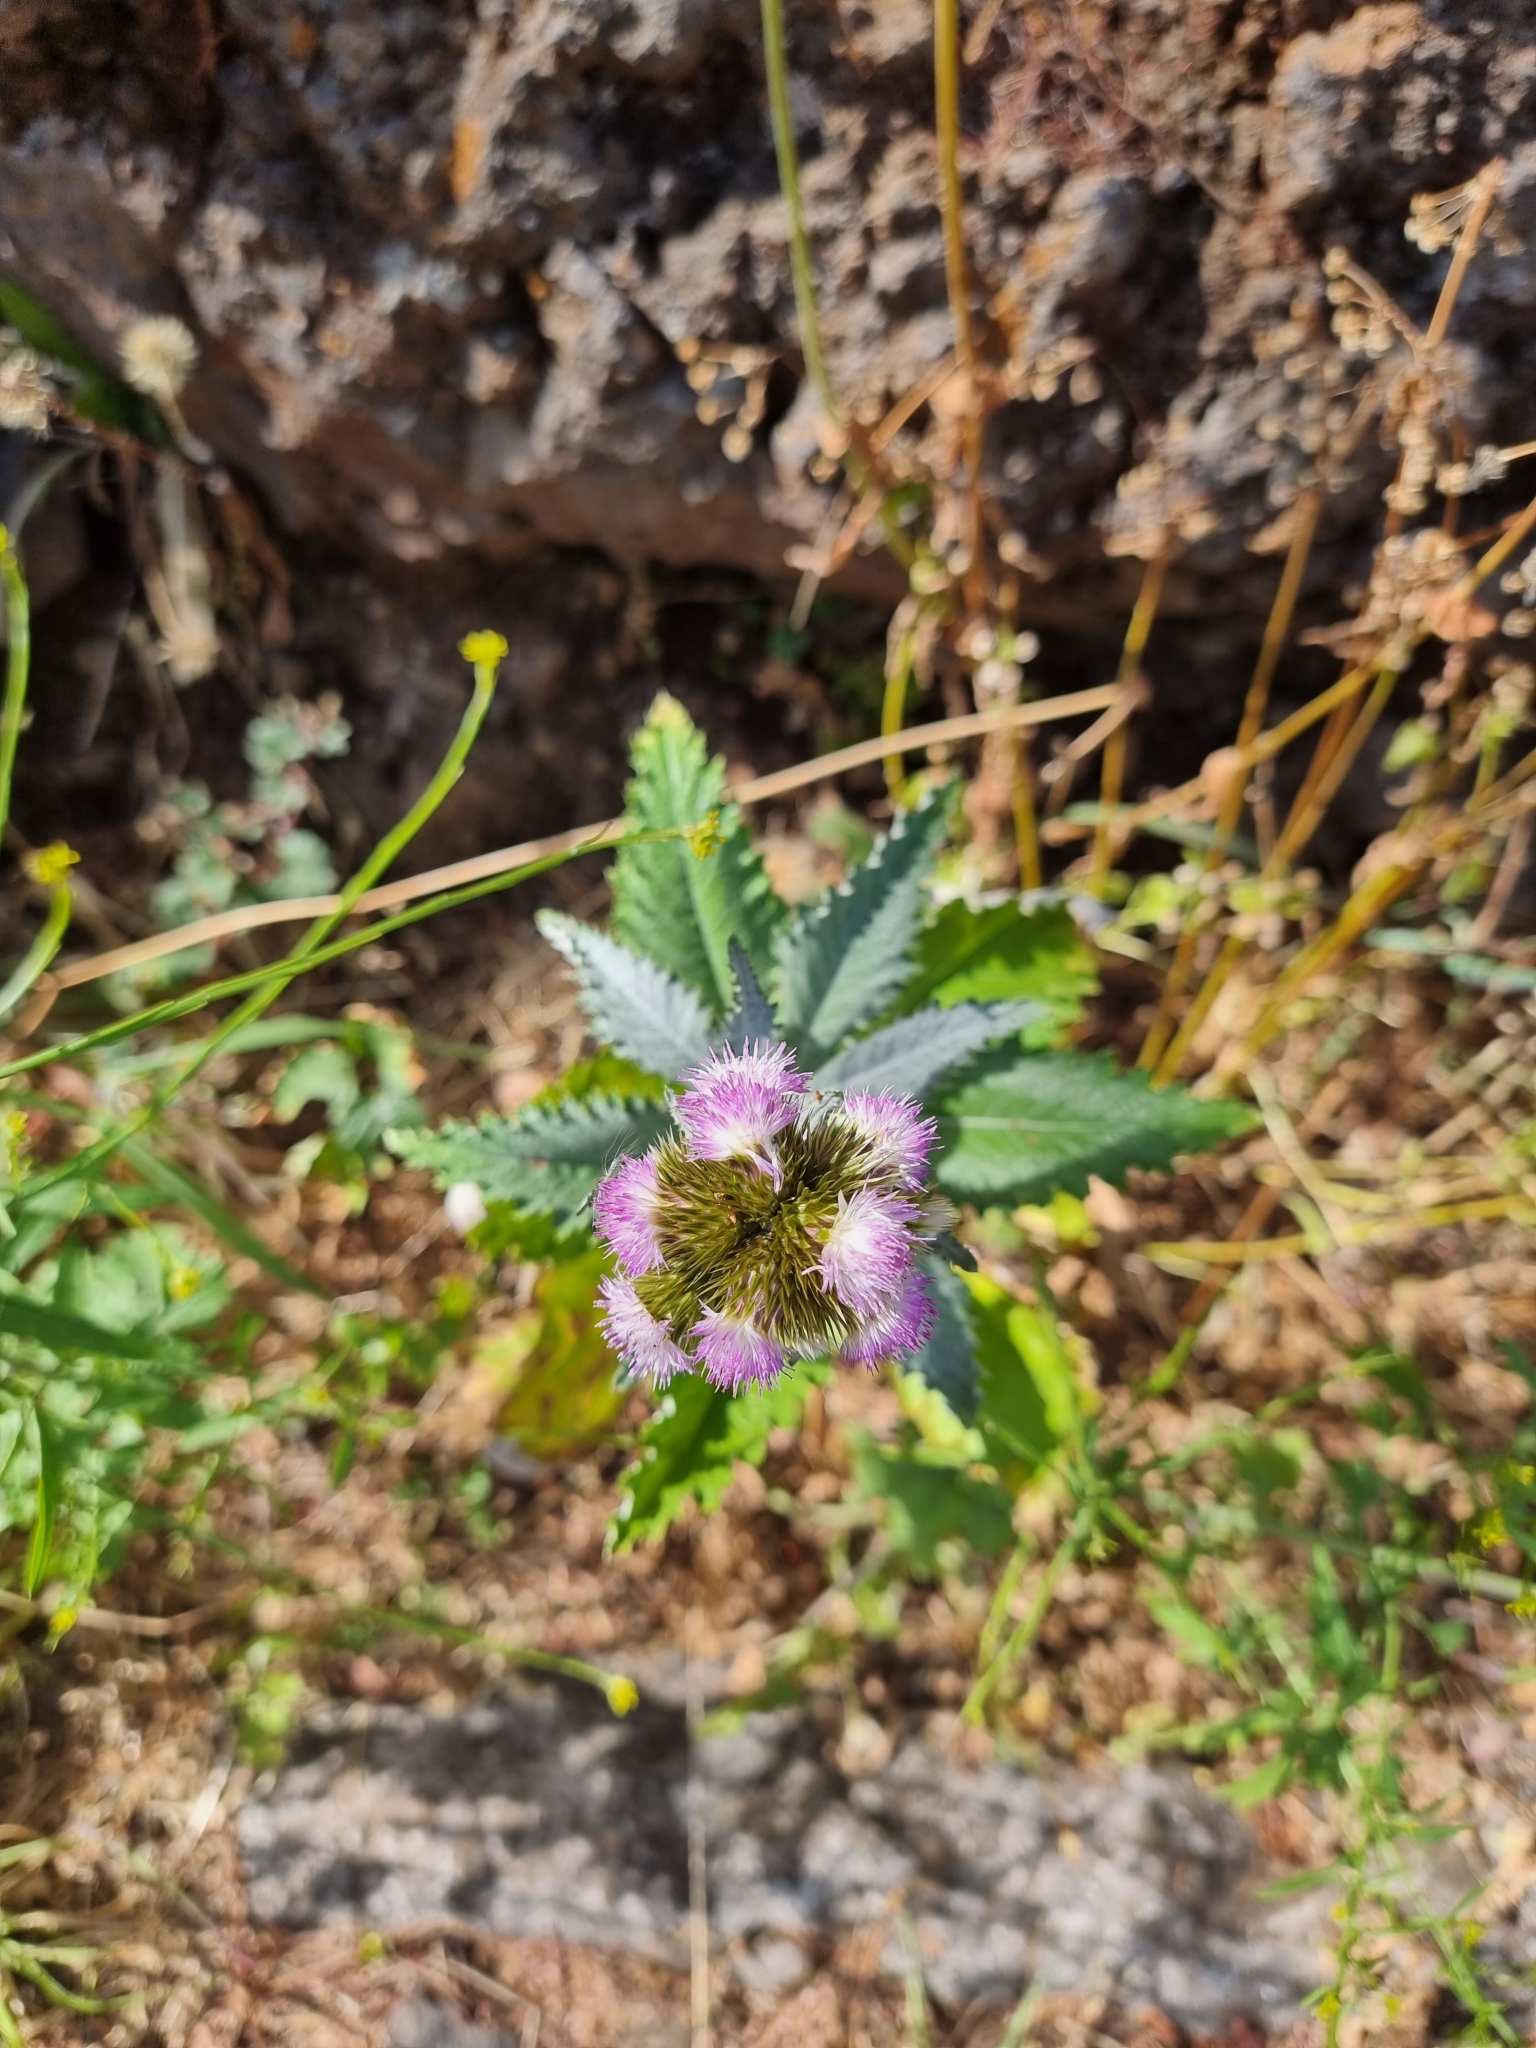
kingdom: Plantae
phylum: Tracheophyta
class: Magnoliopsida
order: Asterales
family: Asteraceae
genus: Carduus
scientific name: Carduus squarrosus
